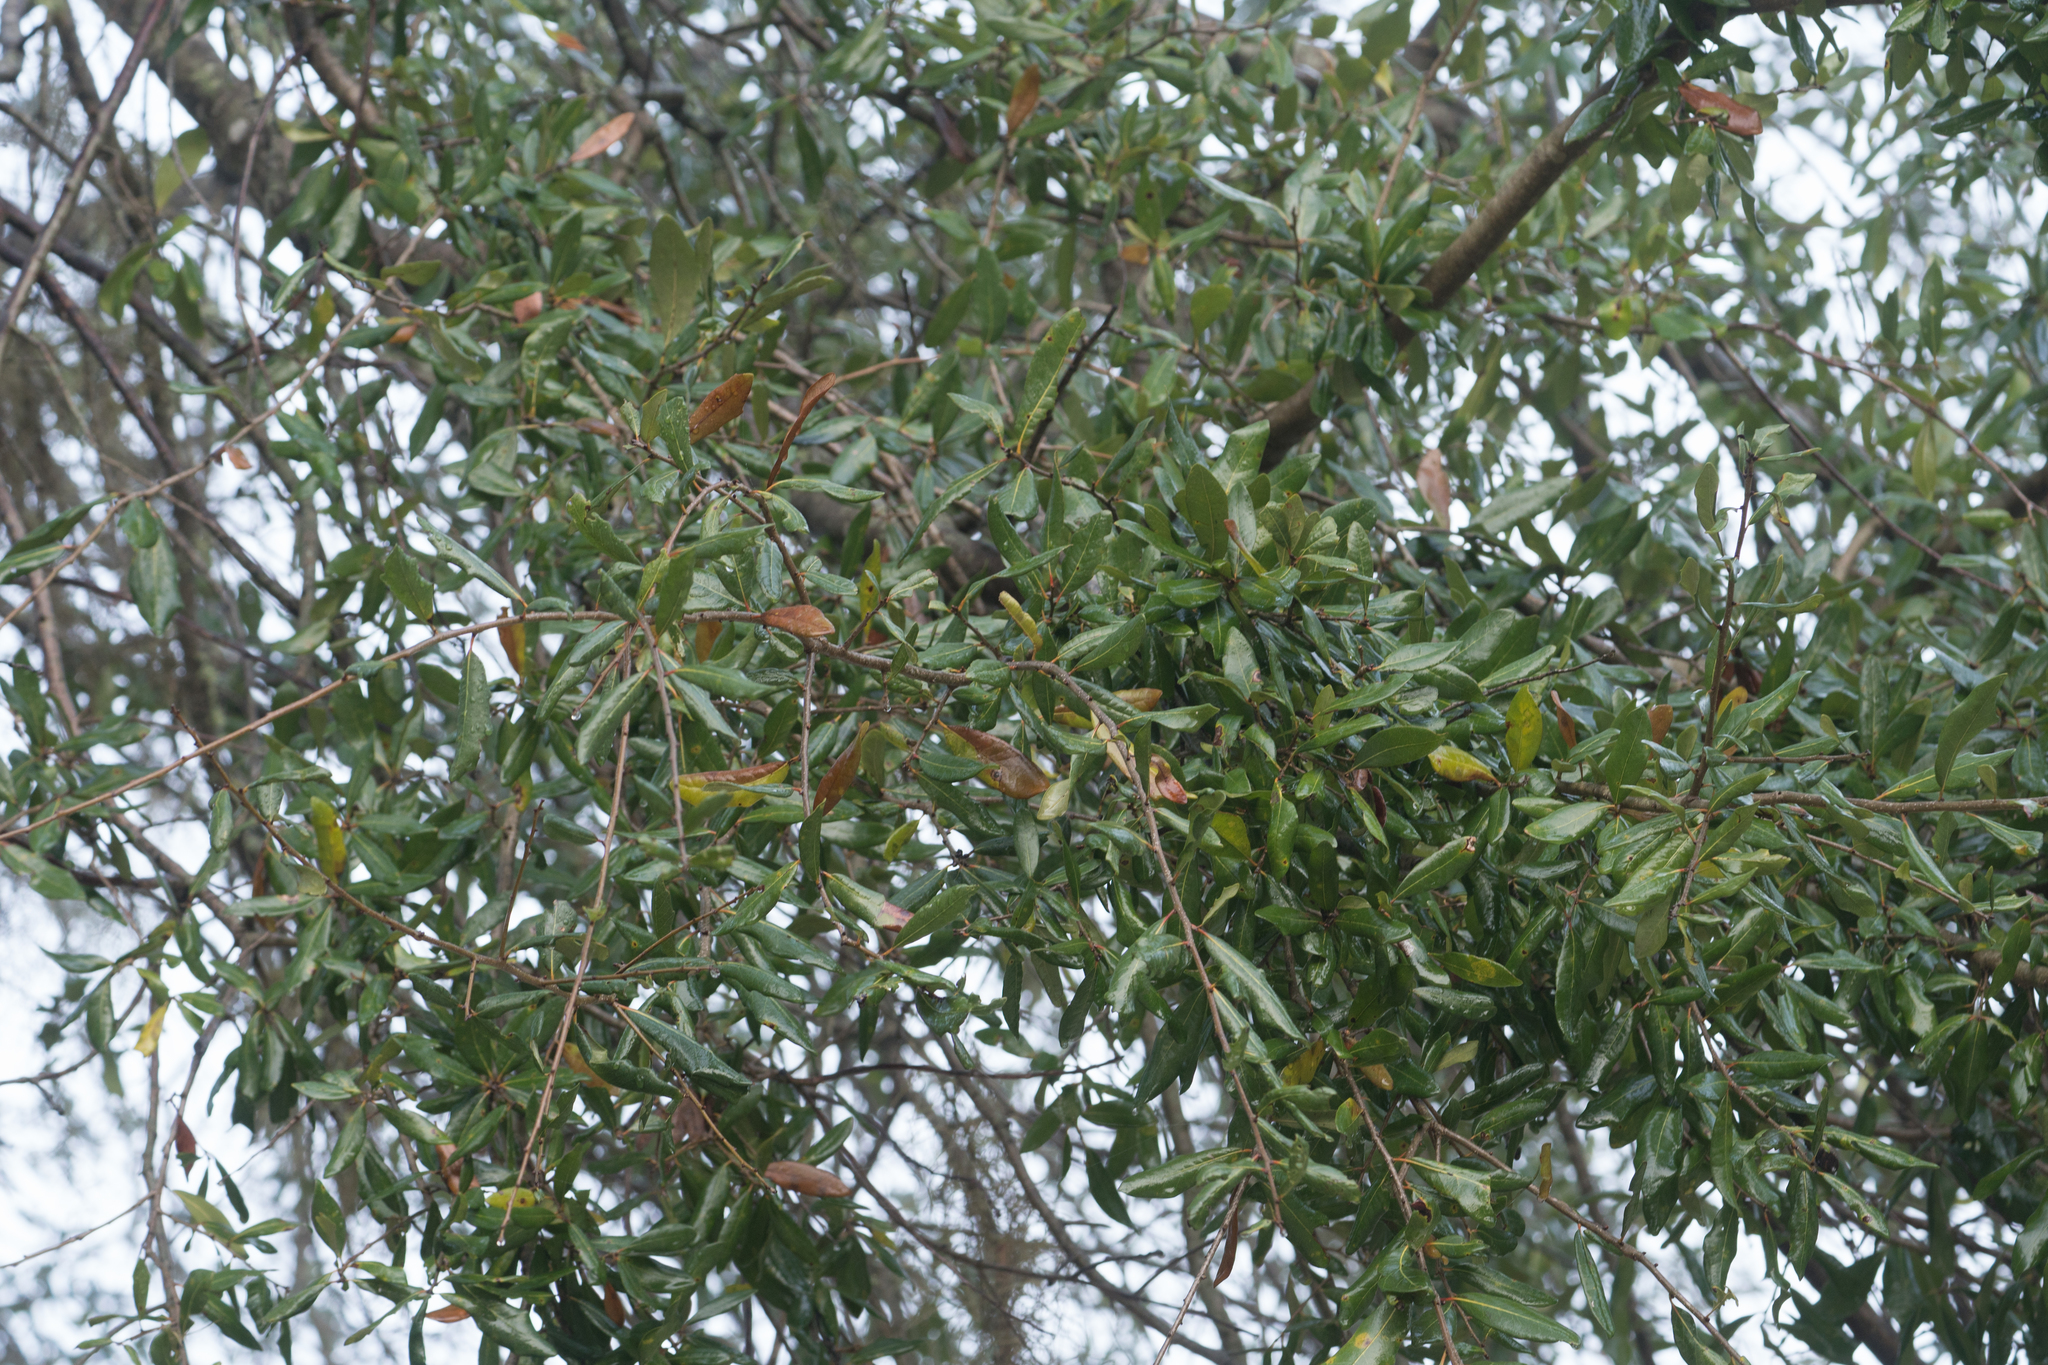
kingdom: Plantae
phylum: Tracheophyta
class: Magnoliopsida
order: Fagales
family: Fagaceae
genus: Quercus
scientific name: Quercus laurifolia
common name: Swamp laurel oak
